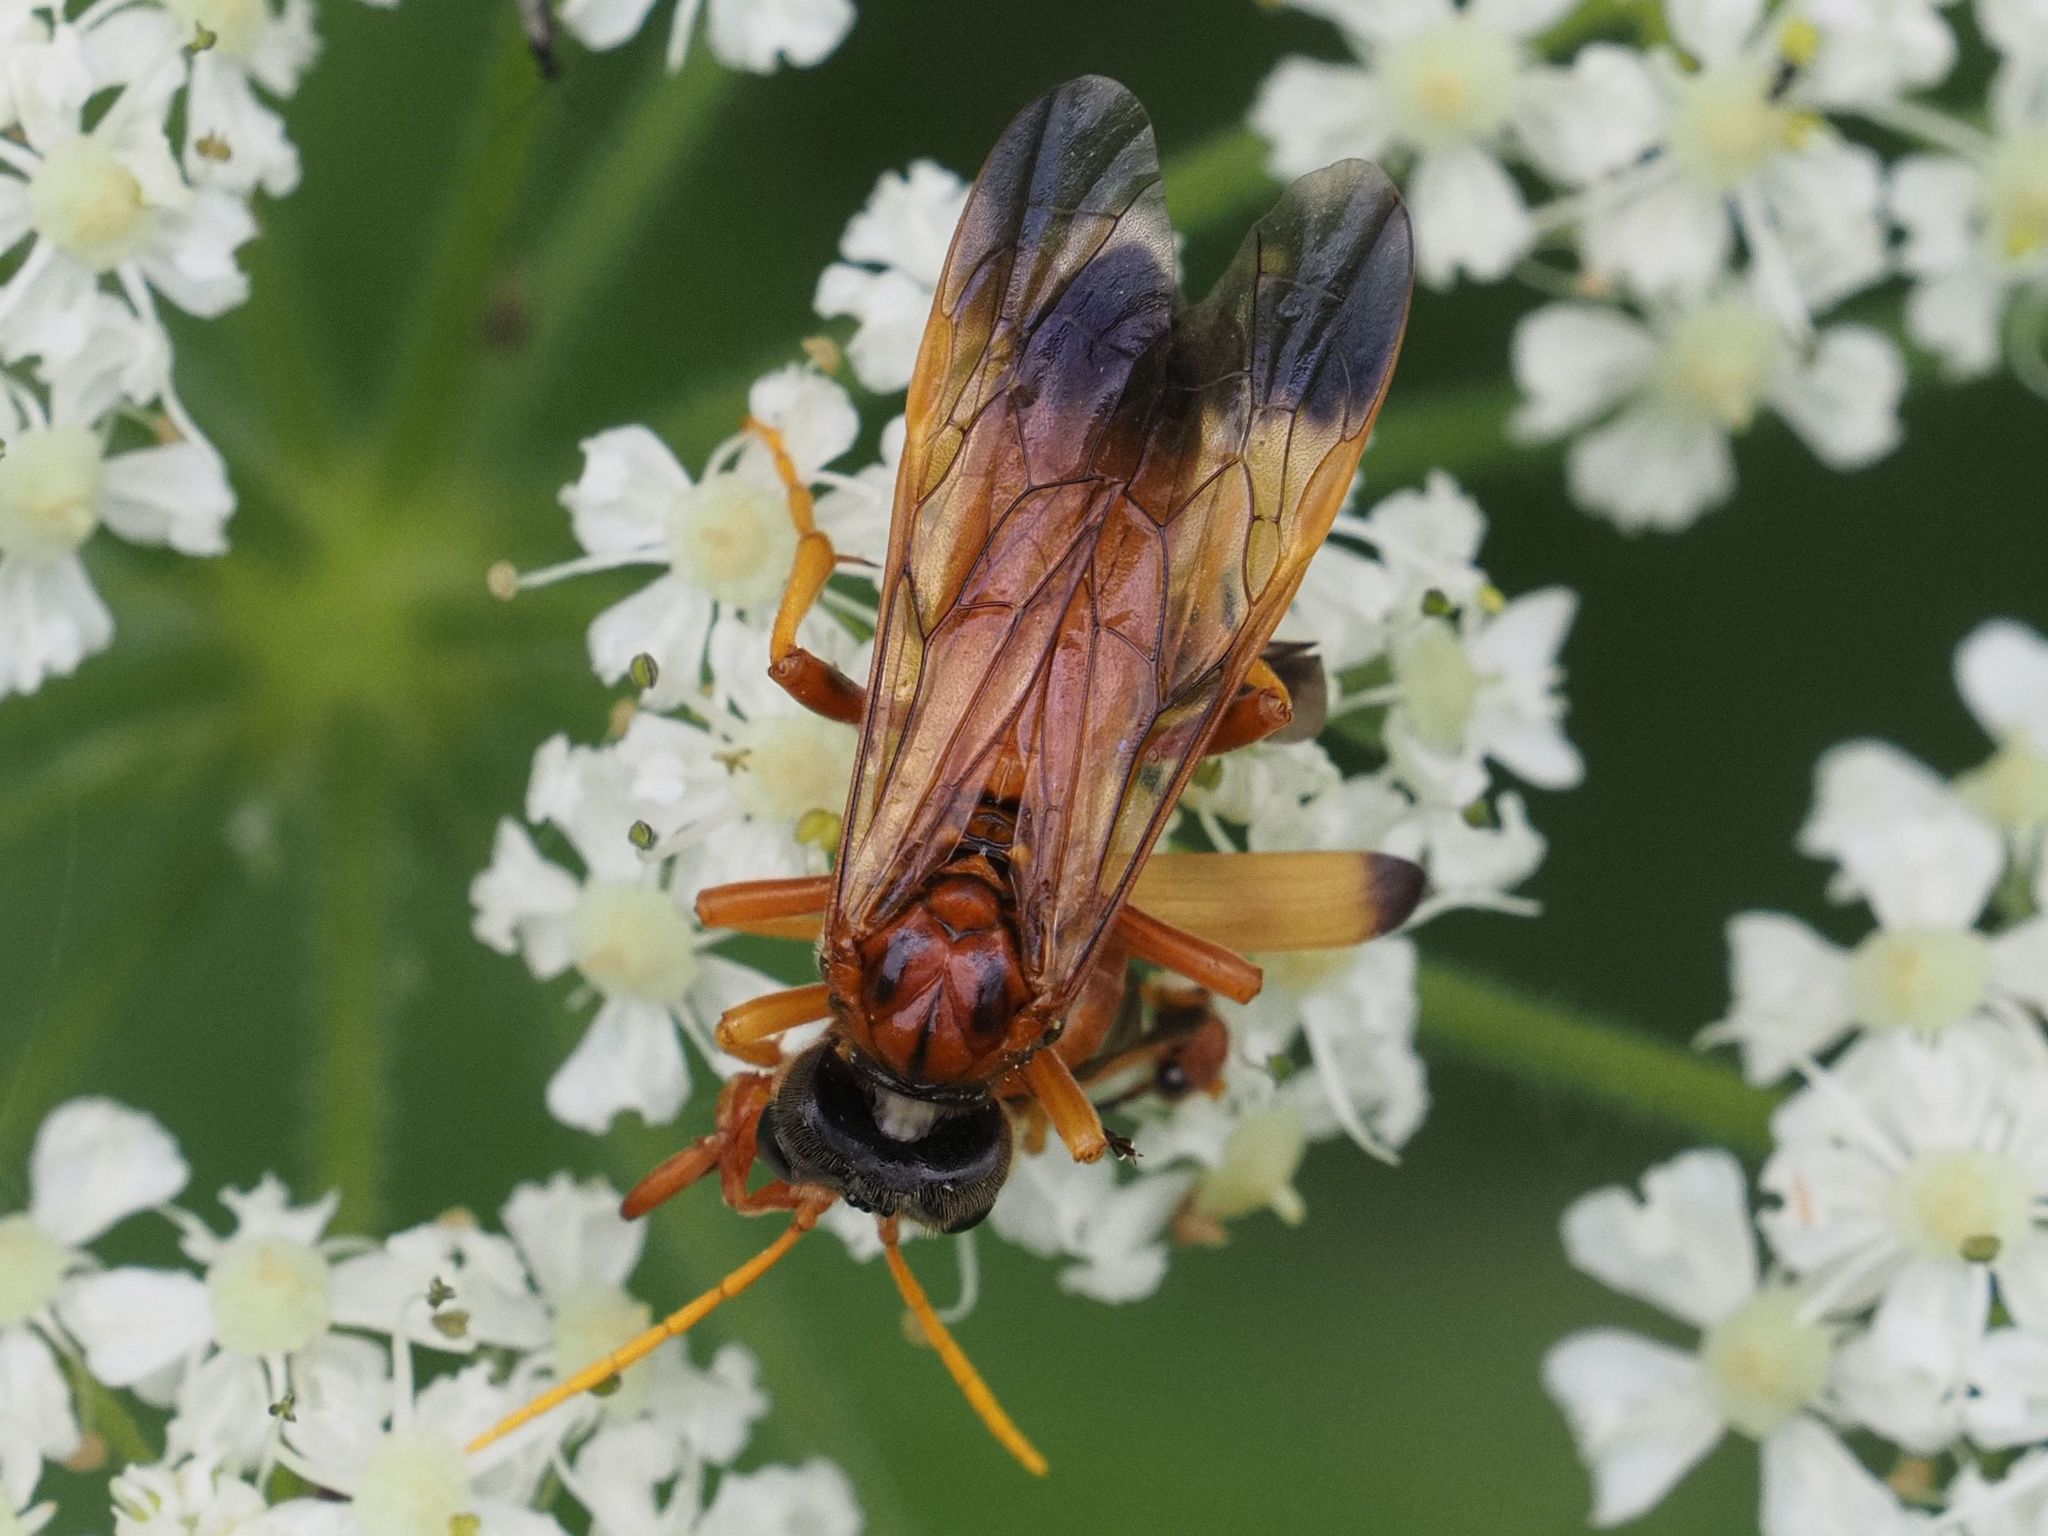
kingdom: Animalia
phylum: Arthropoda
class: Insecta
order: Hymenoptera
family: Tenthredinidae
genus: Tenthredo
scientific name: Tenthredo campestris
